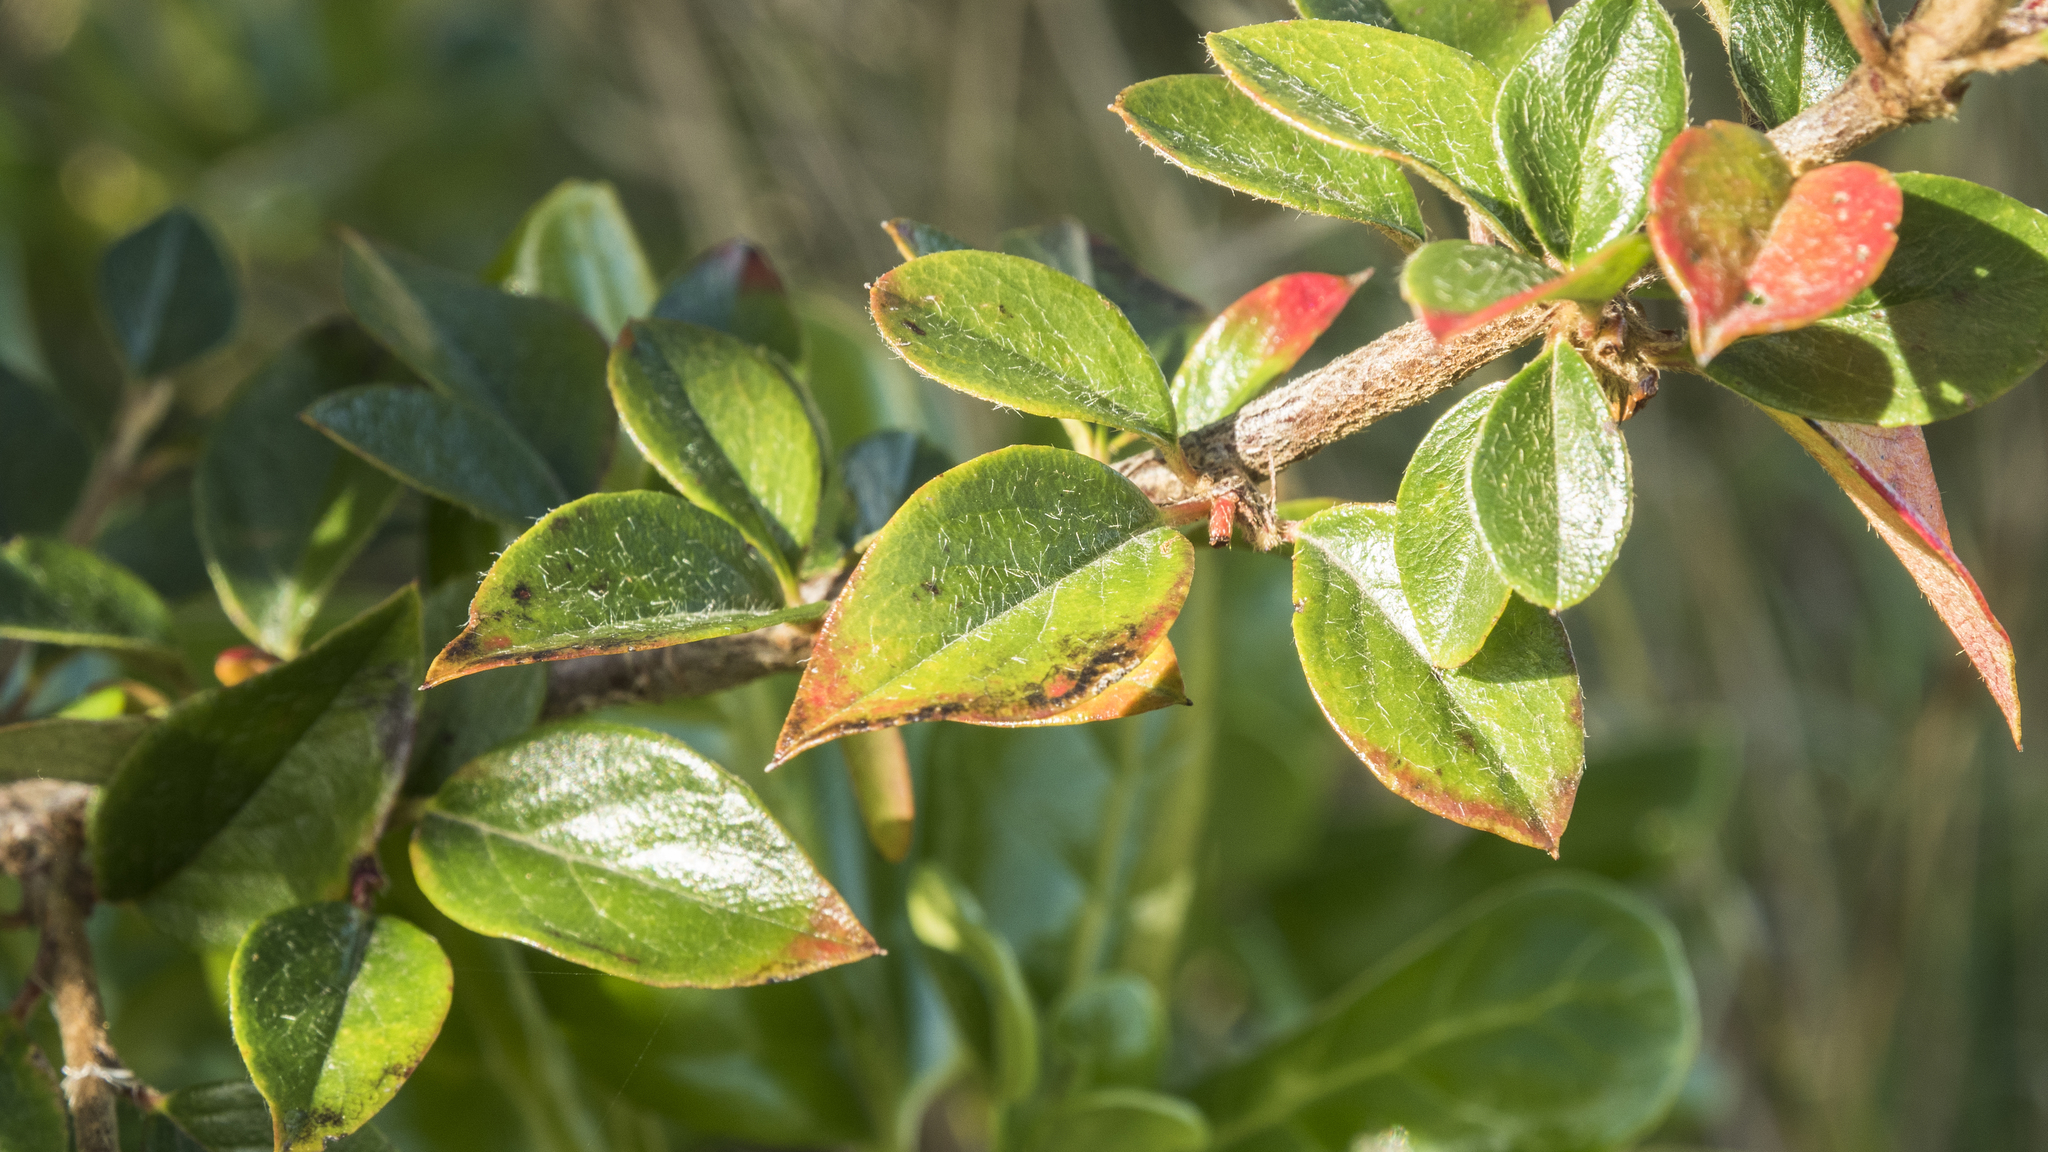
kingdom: Plantae
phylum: Tracheophyta
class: Magnoliopsida
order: Rosales
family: Rosaceae
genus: Cotoneaster
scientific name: Cotoneaster simonsii
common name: Himalayan cotoneaster
